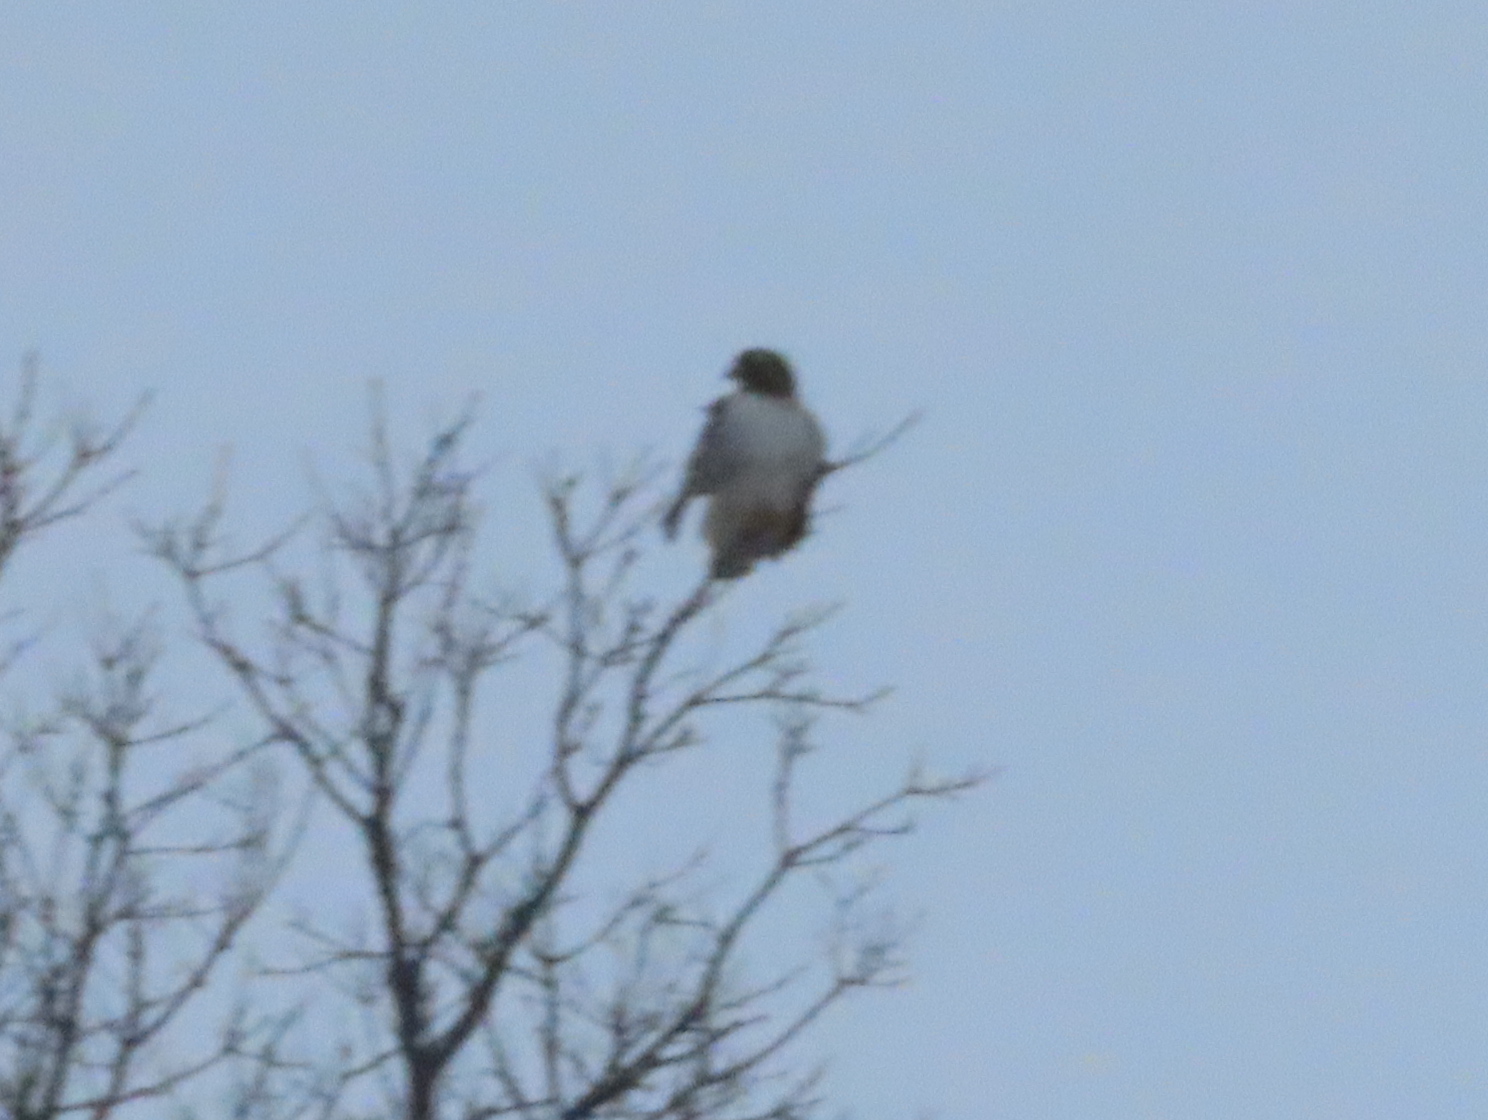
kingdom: Animalia
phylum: Chordata
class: Aves
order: Accipitriformes
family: Accipitridae
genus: Buteo
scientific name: Buteo jamaicensis
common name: Red-tailed hawk
